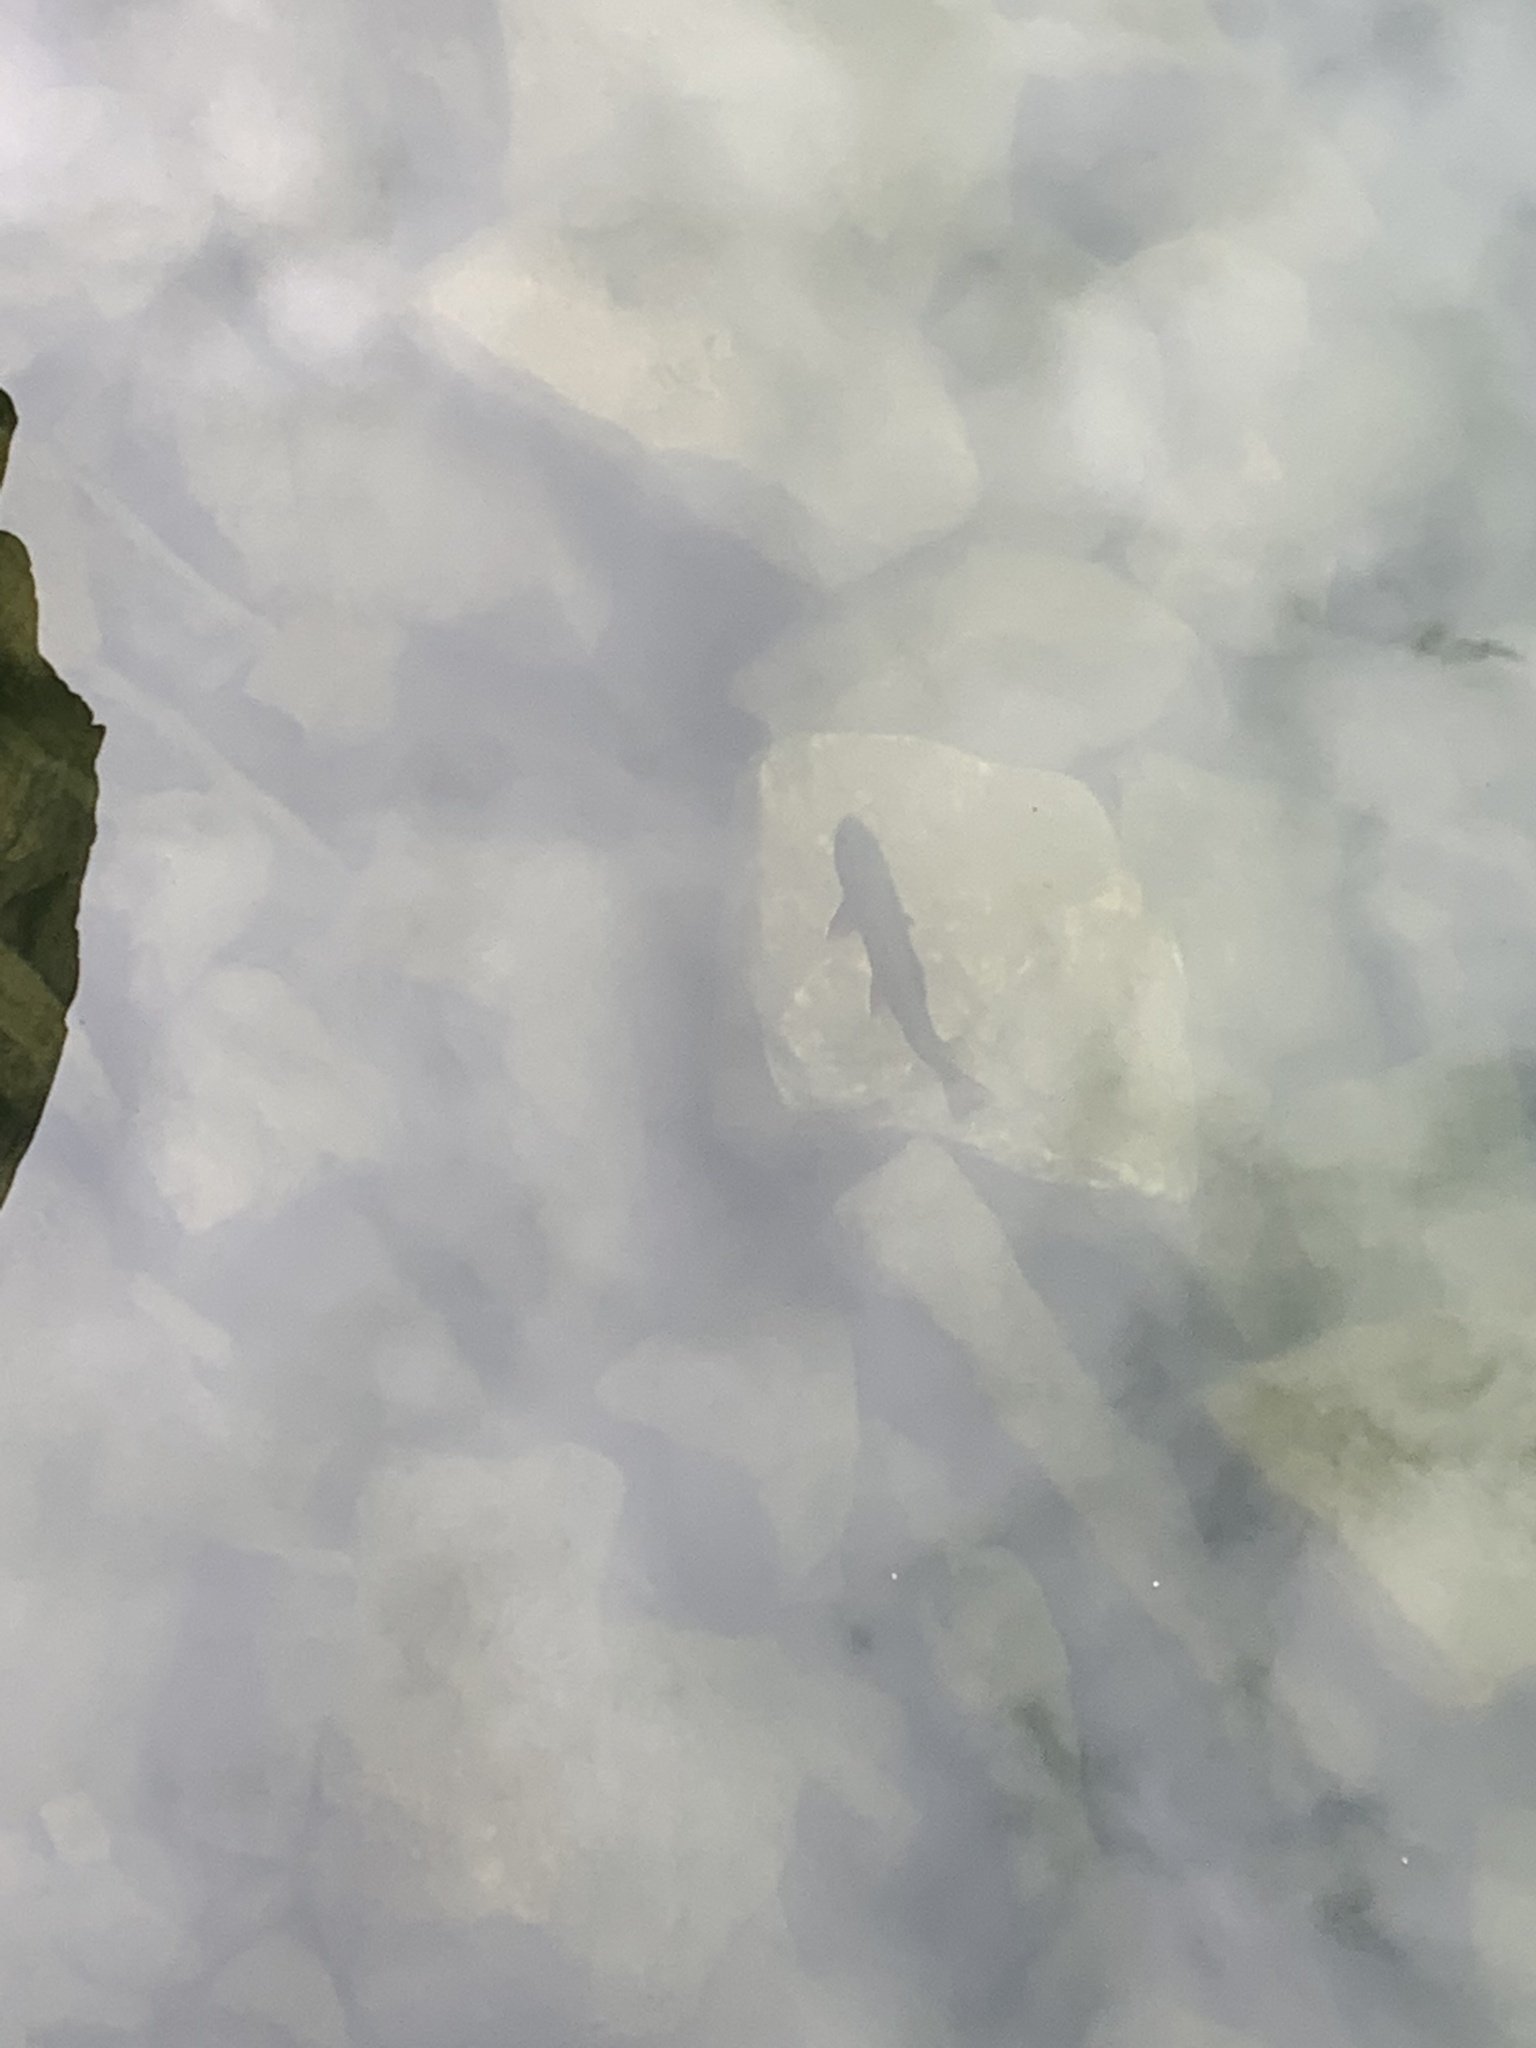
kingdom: Animalia
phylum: Chordata
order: Salmoniformes
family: Salmonidae
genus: Salvelinus
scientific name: Salvelinus fontinalis
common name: Brook trout
